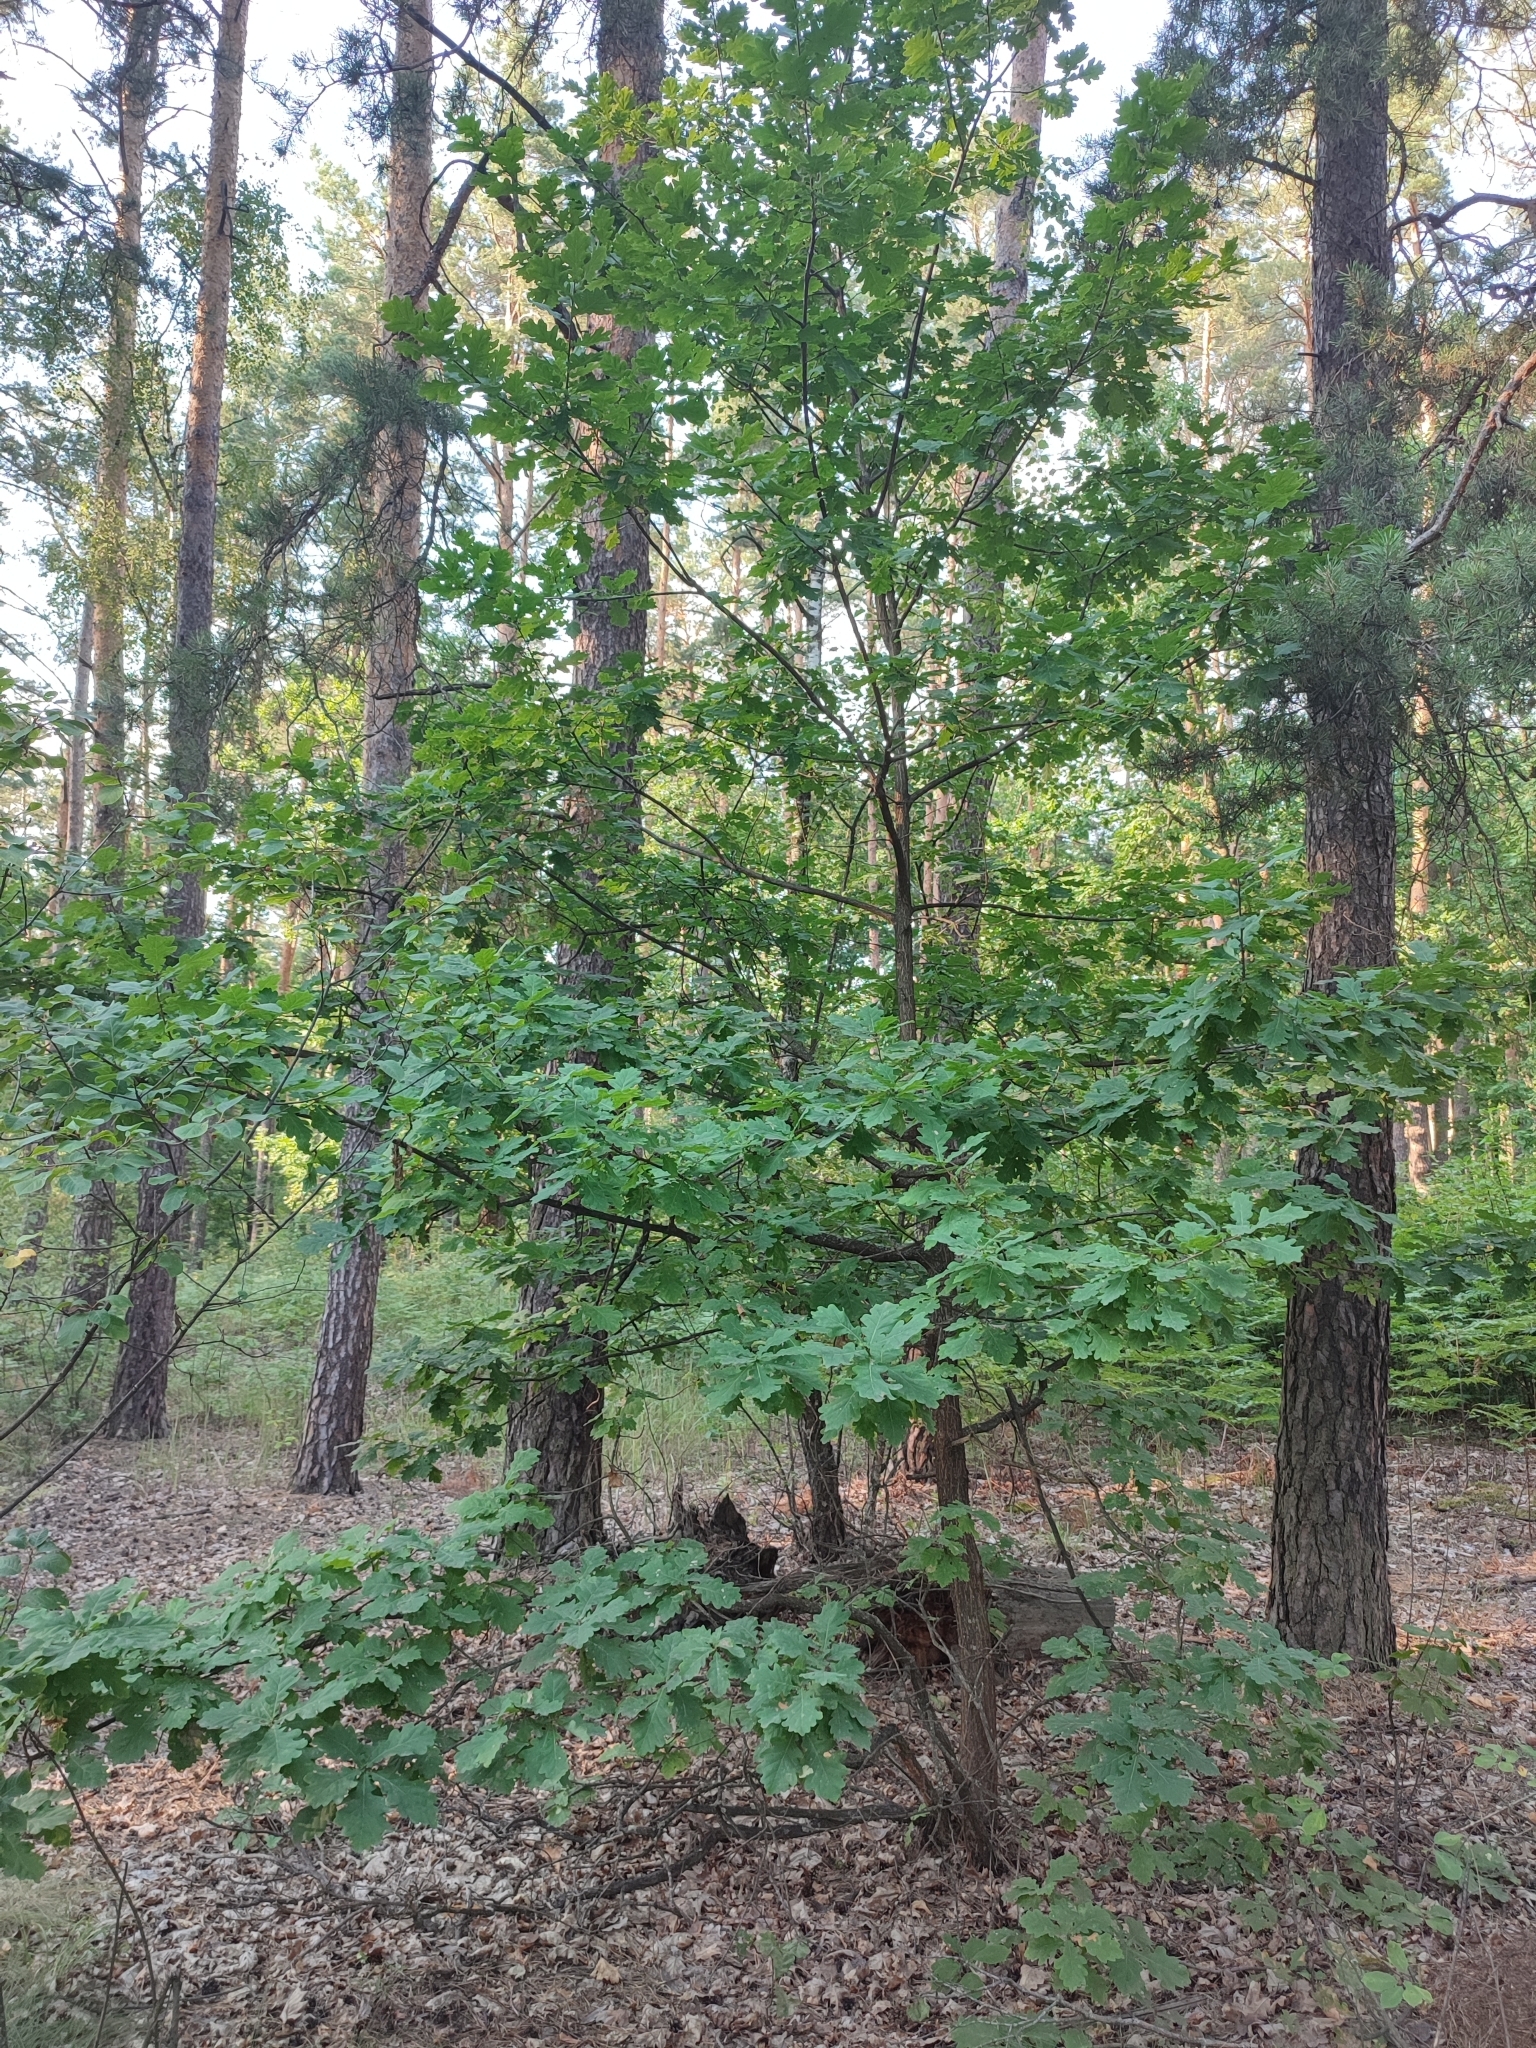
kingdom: Plantae
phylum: Tracheophyta
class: Magnoliopsida
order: Fagales
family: Fagaceae
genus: Quercus
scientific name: Quercus robur
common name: Pedunculate oak
